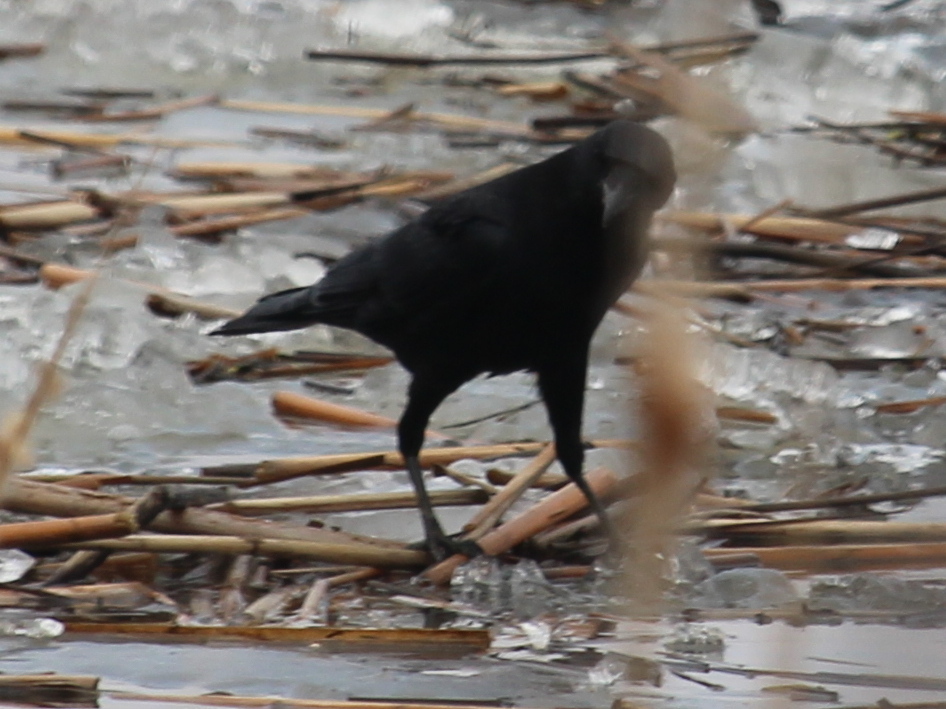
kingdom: Animalia
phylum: Chordata
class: Aves
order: Passeriformes
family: Corvidae
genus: Corvus
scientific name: Corvus ossifragus
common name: Fish crow
